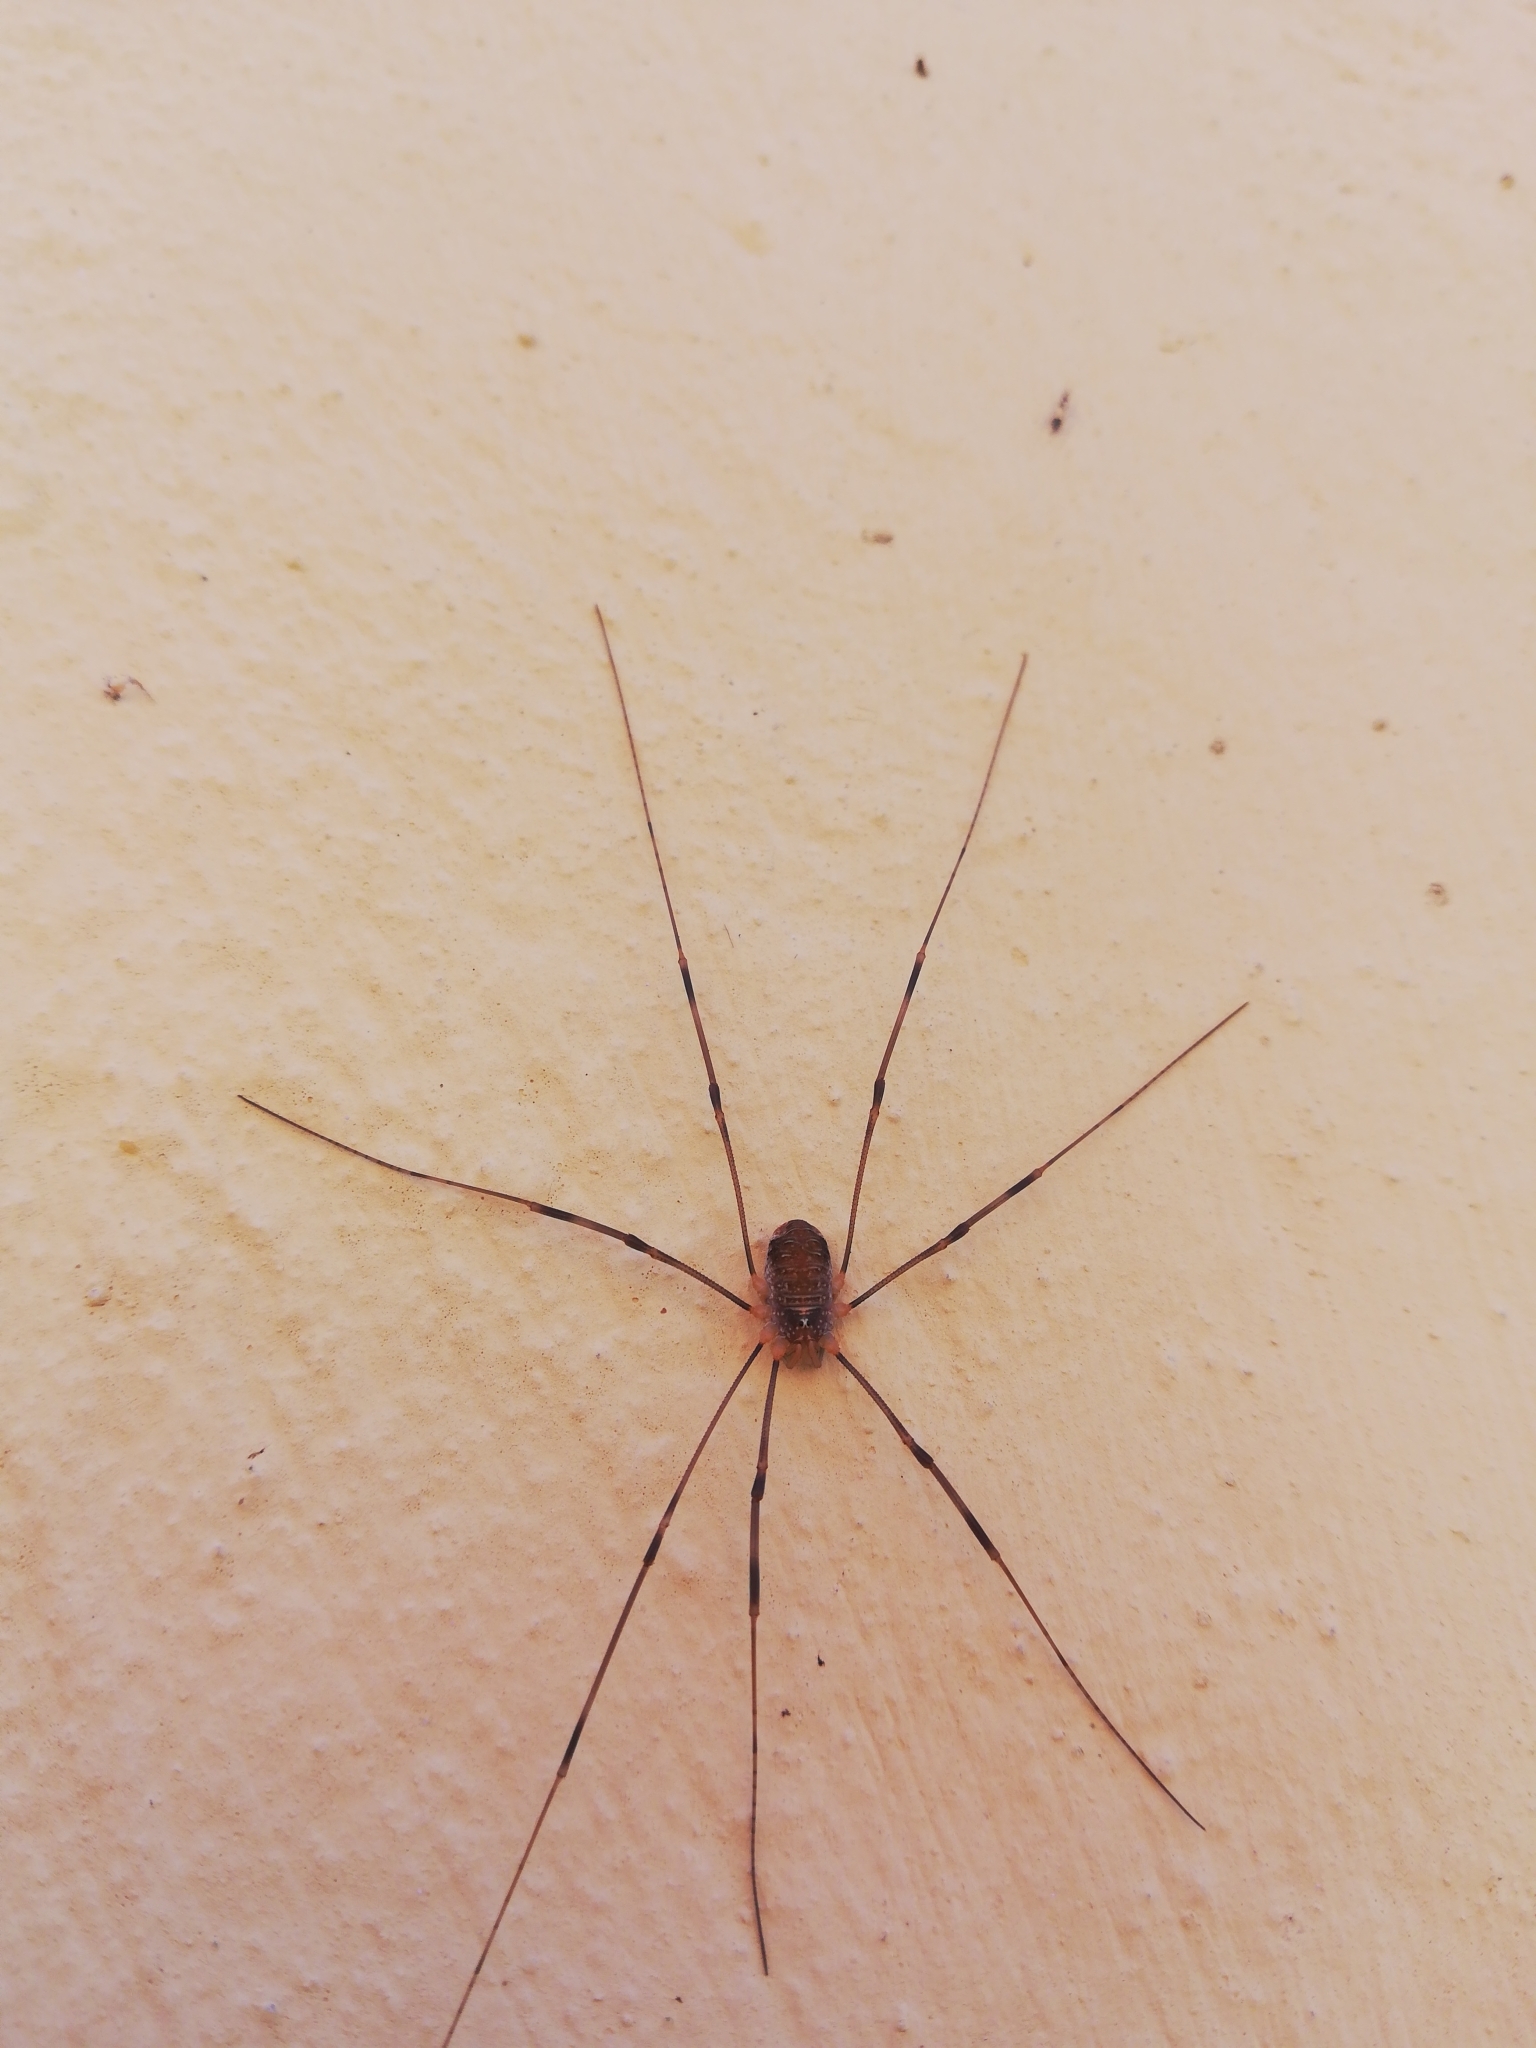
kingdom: Animalia
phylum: Arthropoda
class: Arachnida
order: Opiliones
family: Phalangiidae
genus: Opilio
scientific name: Opilio canestrinii
